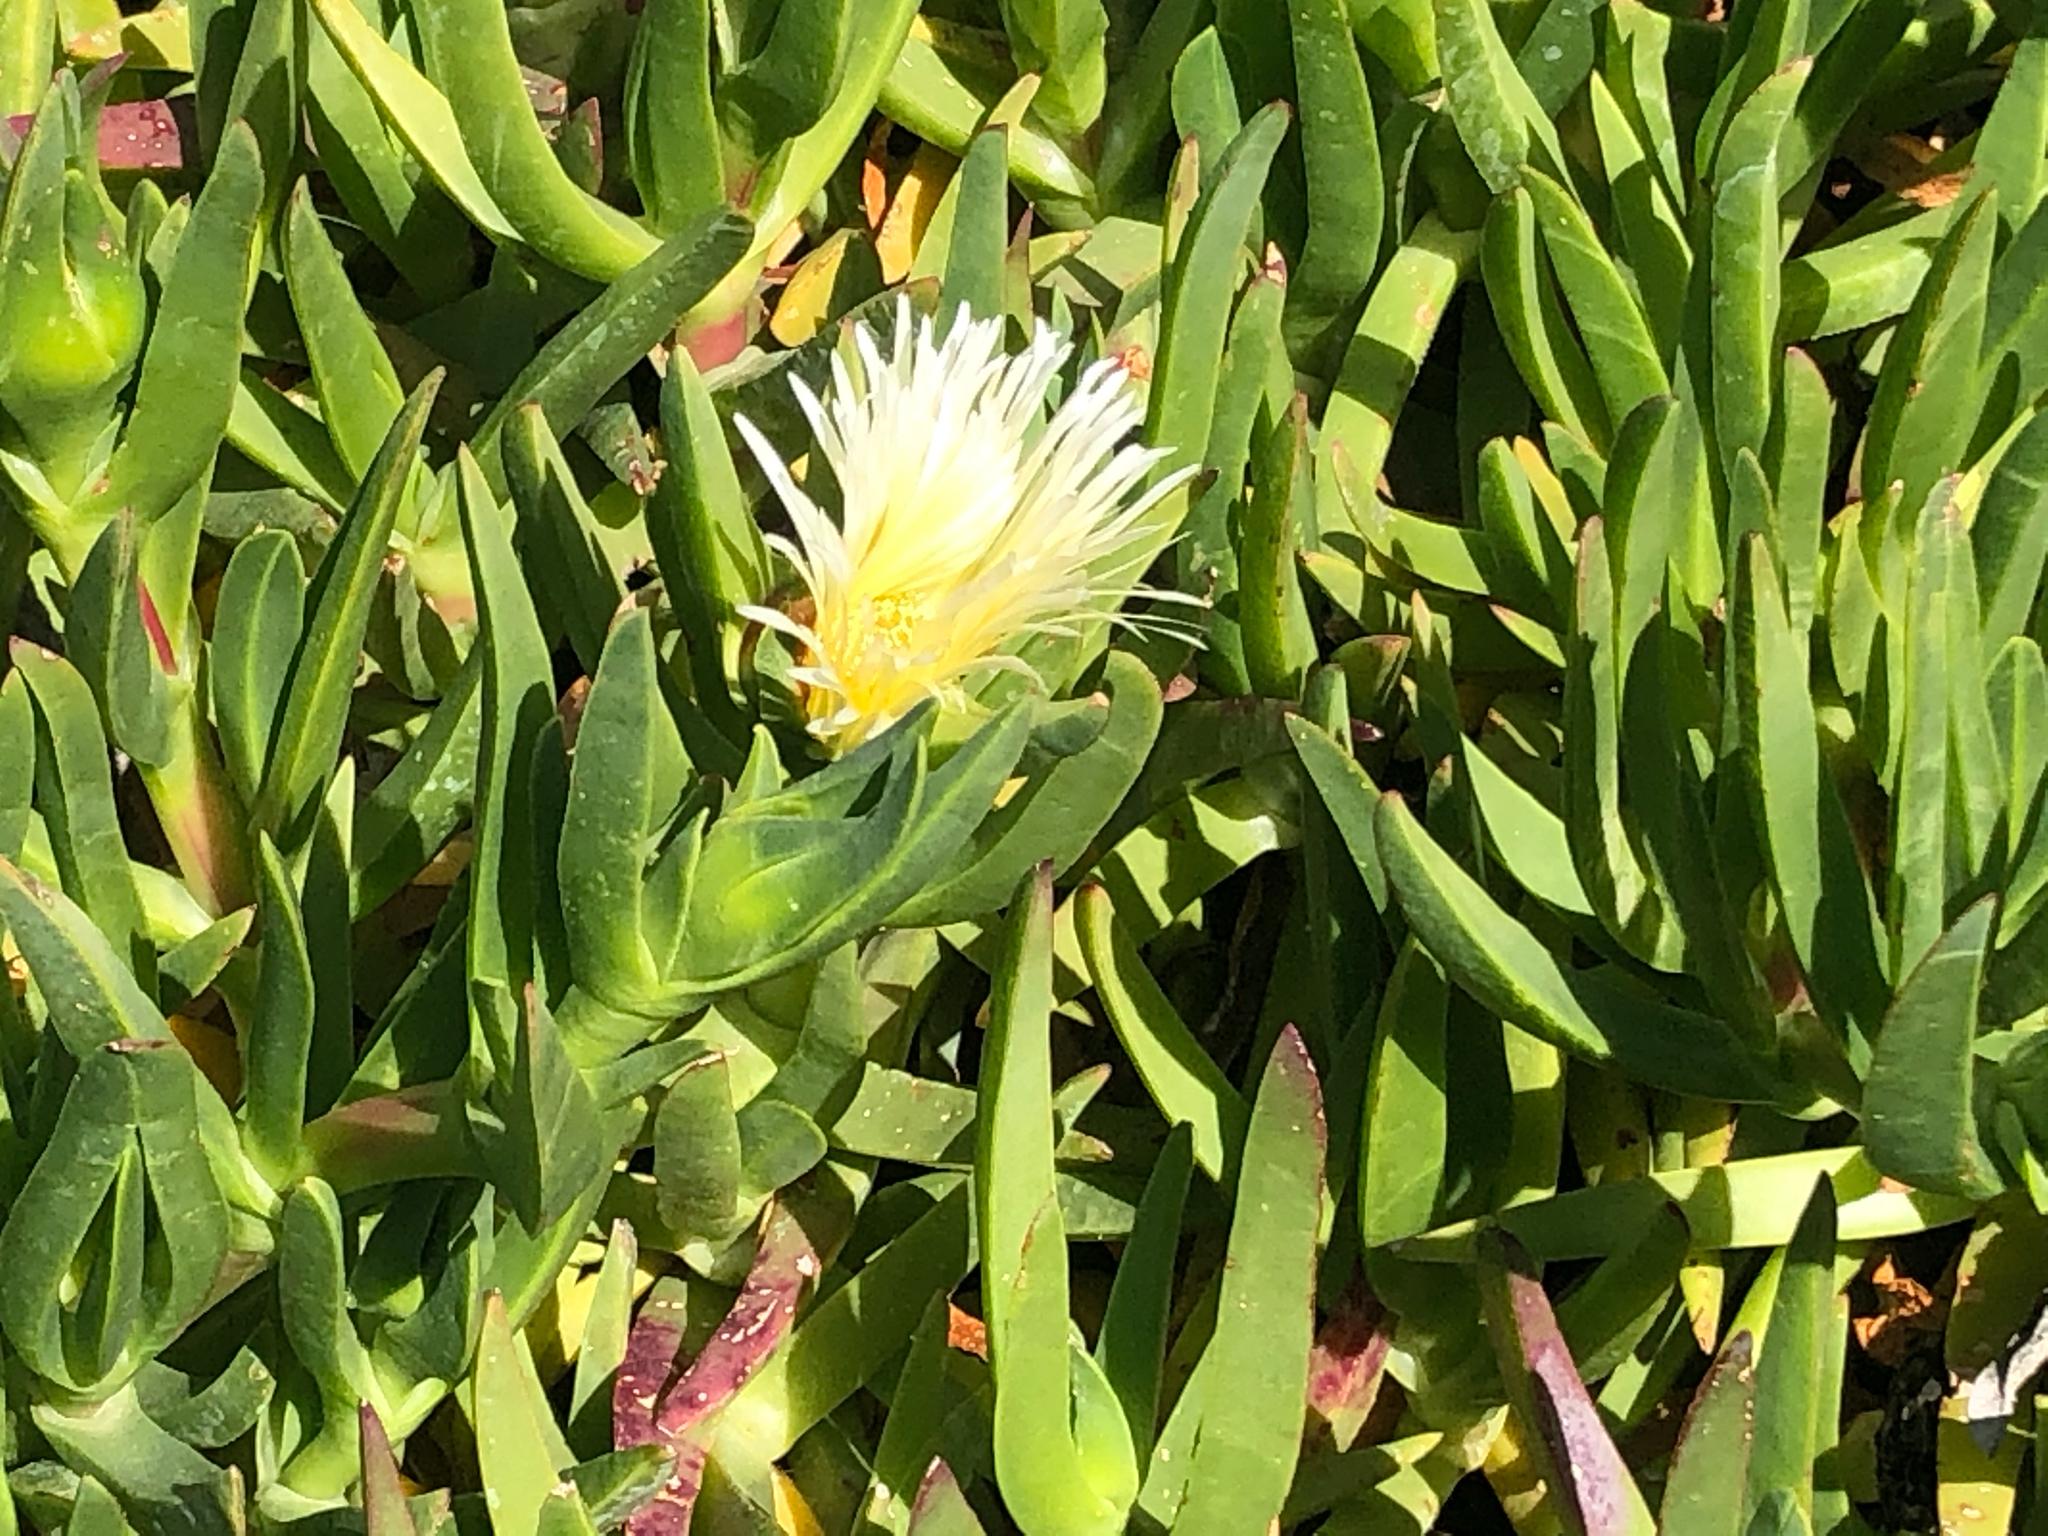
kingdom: Plantae
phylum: Tracheophyta
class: Magnoliopsida
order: Caryophyllales
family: Aizoaceae
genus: Carpobrotus
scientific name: Carpobrotus edulis
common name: Hottentot-fig
